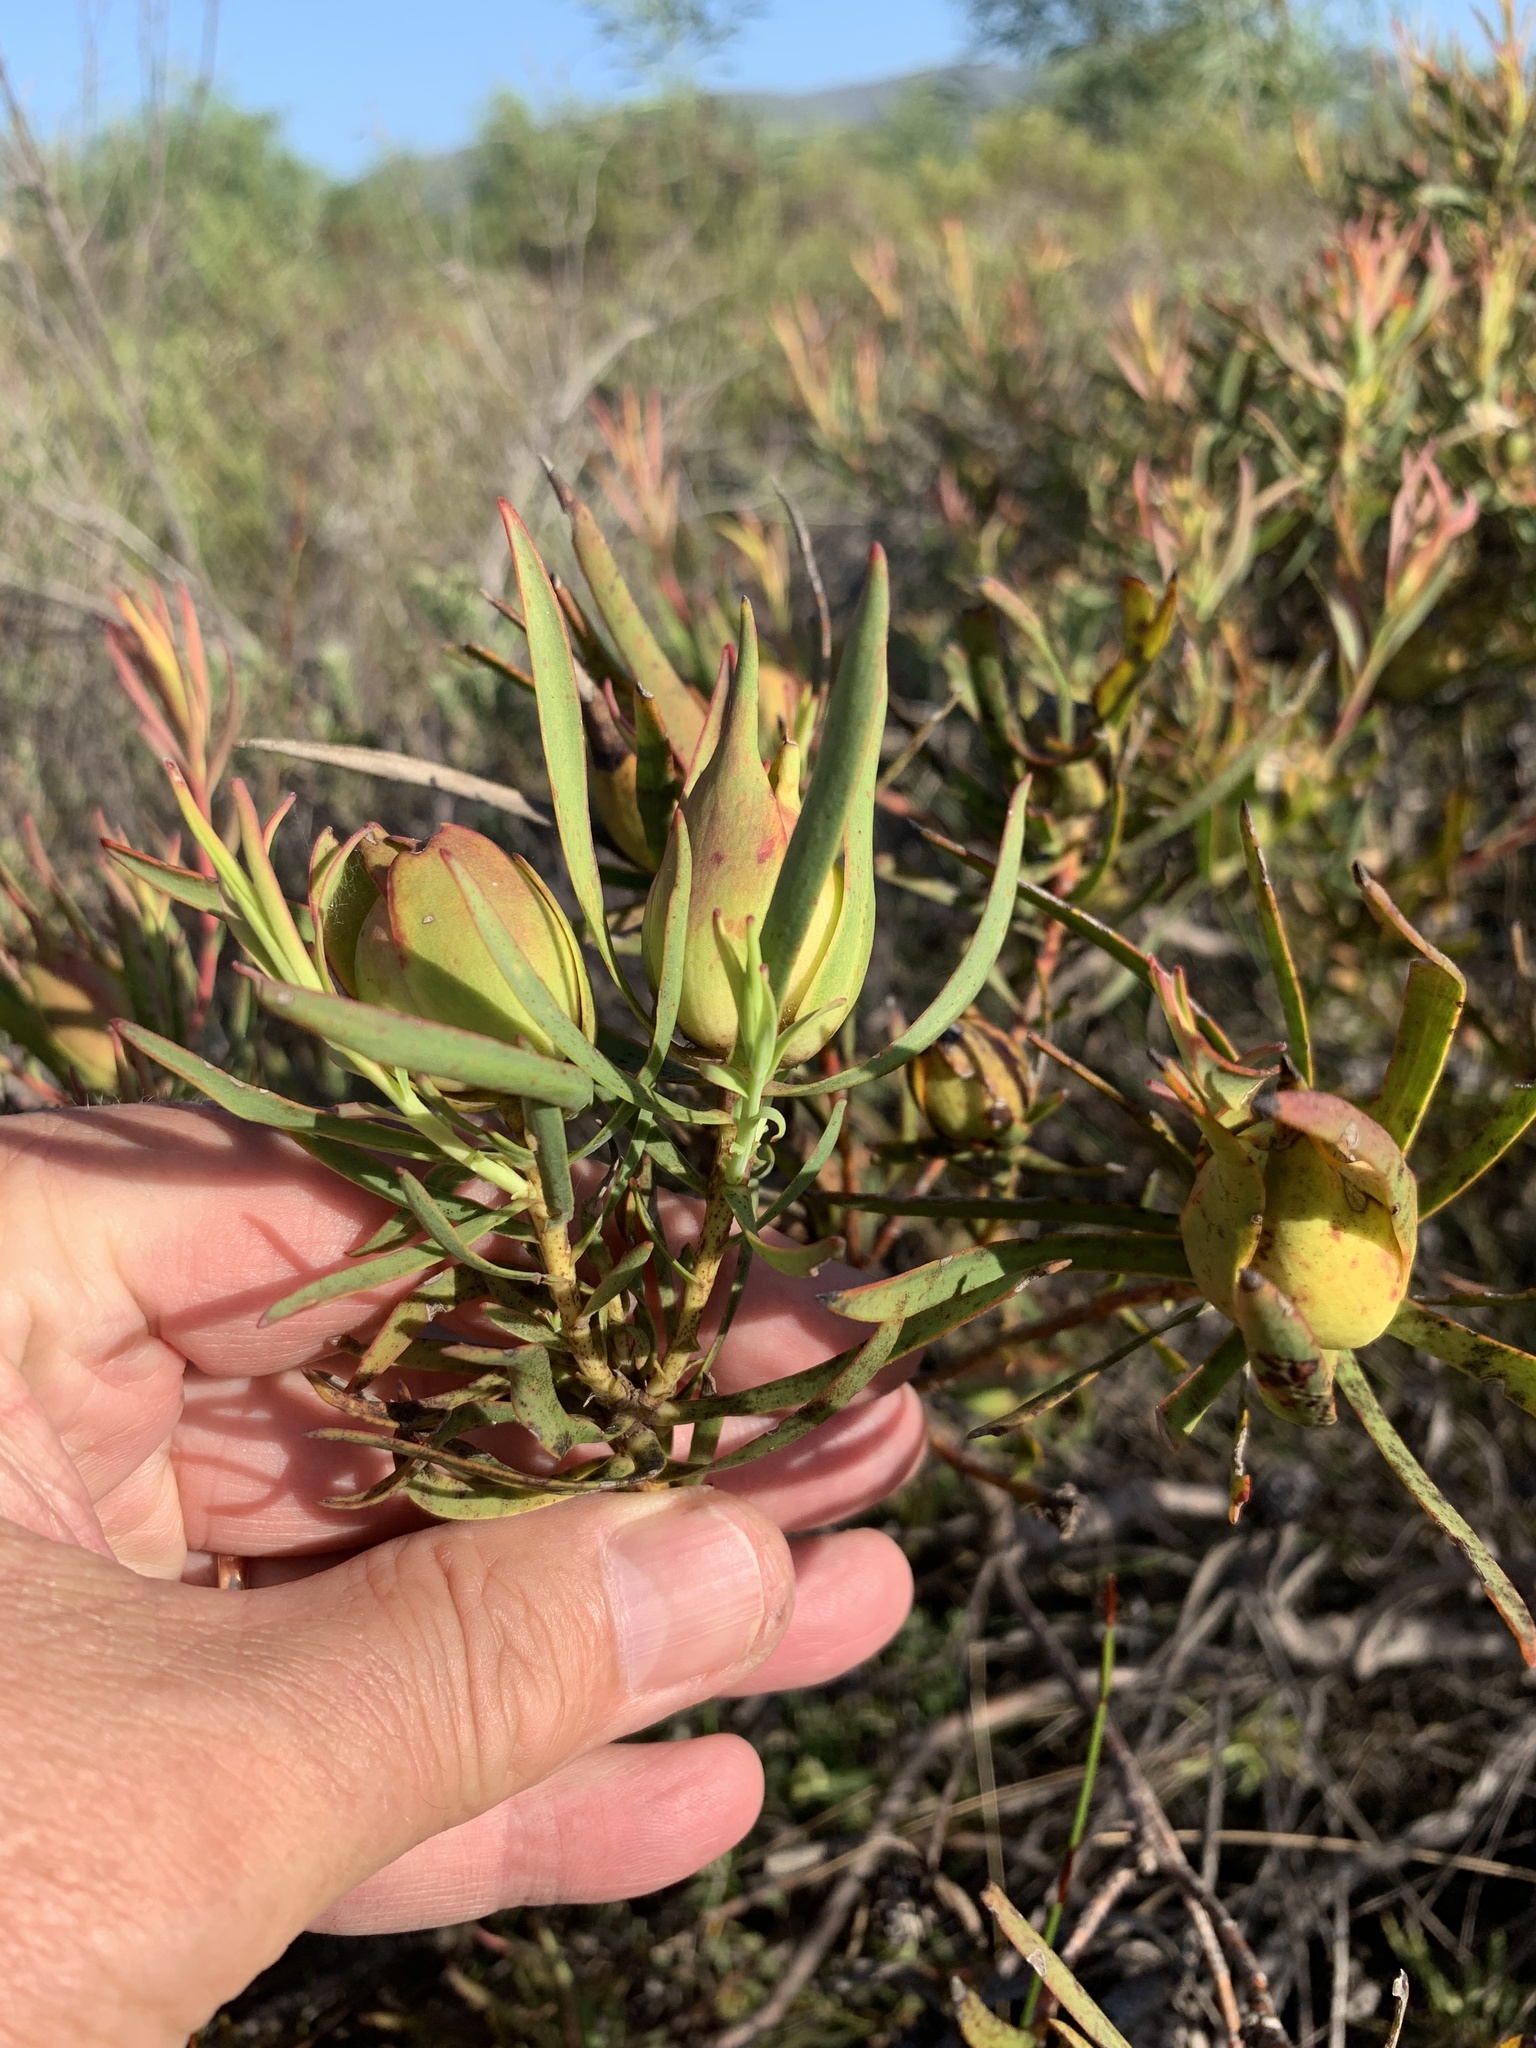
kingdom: Plantae
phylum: Tracheophyta
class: Magnoliopsida
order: Proteales
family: Proteaceae
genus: Leucadendron
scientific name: Leucadendron salignum
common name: Common sunshine conebush
